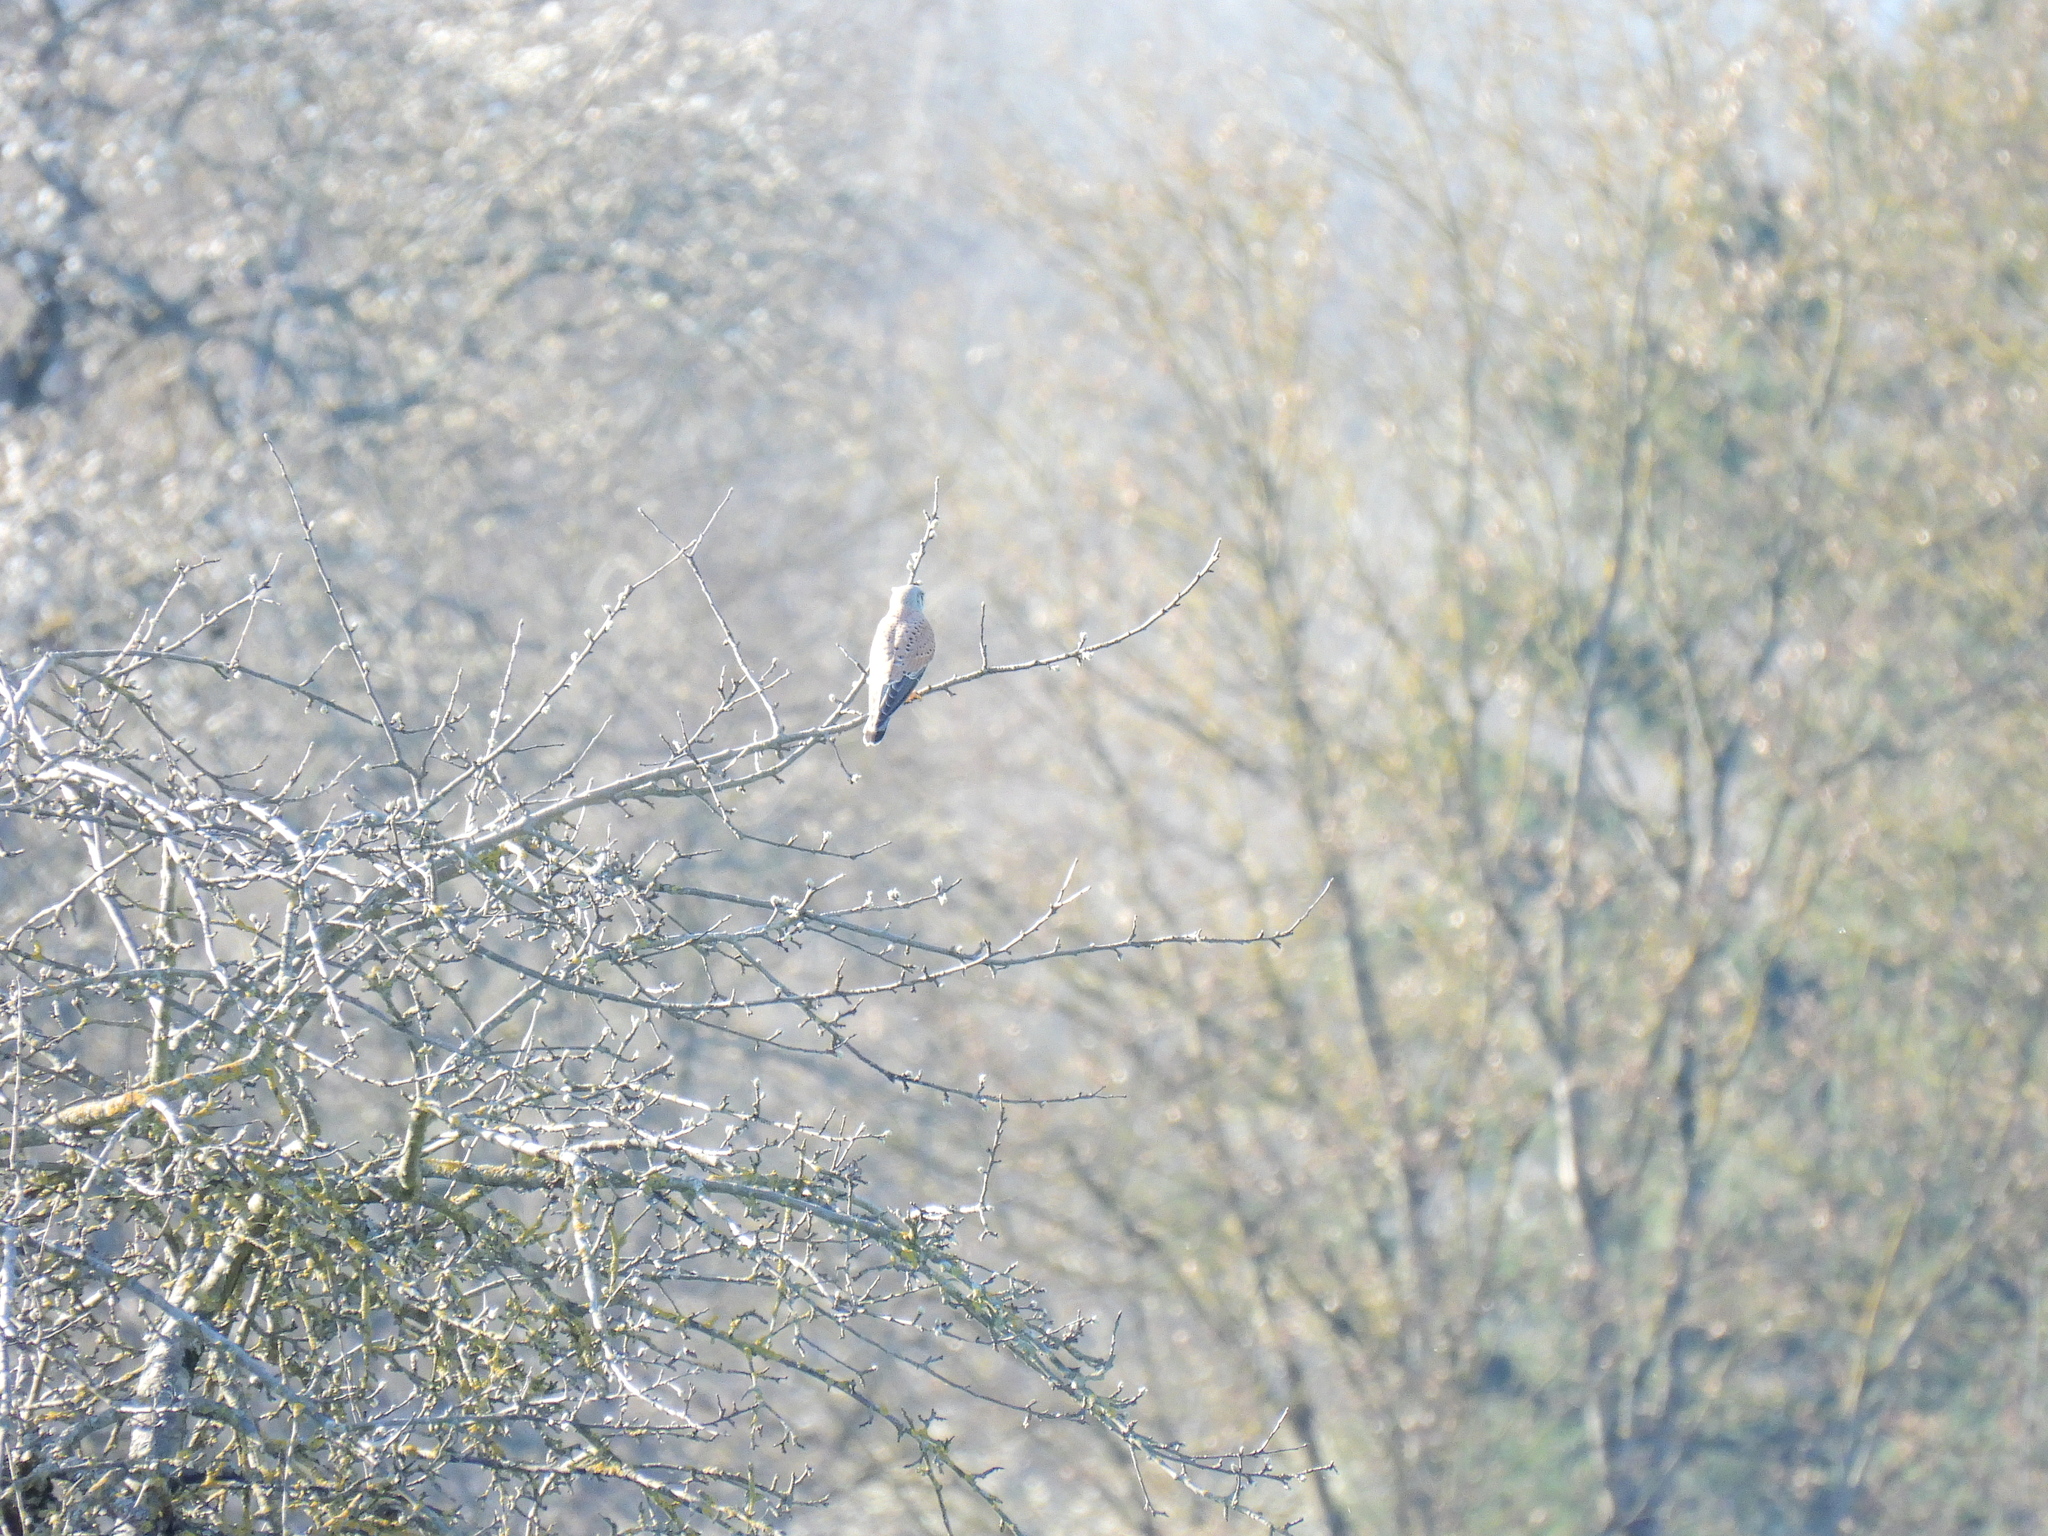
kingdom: Animalia
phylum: Chordata
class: Aves
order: Falconiformes
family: Falconidae
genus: Falco
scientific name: Falco tinnunculus
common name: Common kestrel
